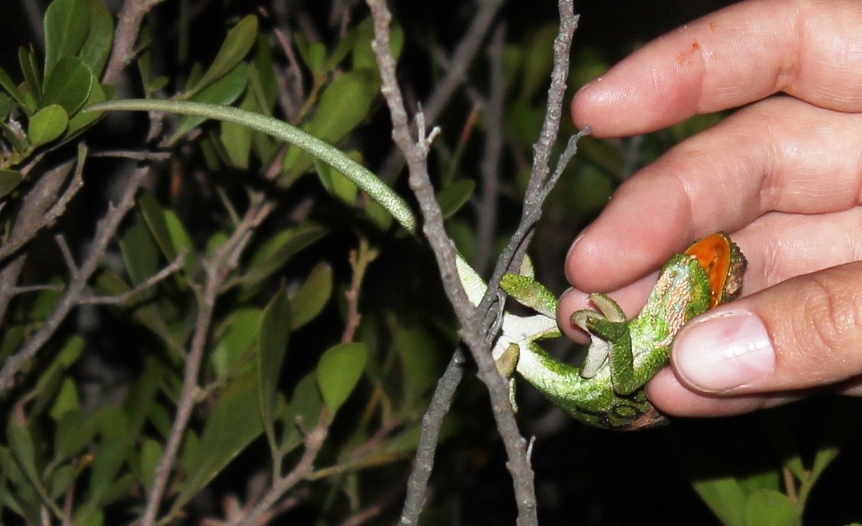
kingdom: Animalia
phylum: Chordata
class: Squamata
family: Chamaeleonidae
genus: Bradypodion
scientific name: Bradypodion pumilum
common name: Cape dwarf chameleon
